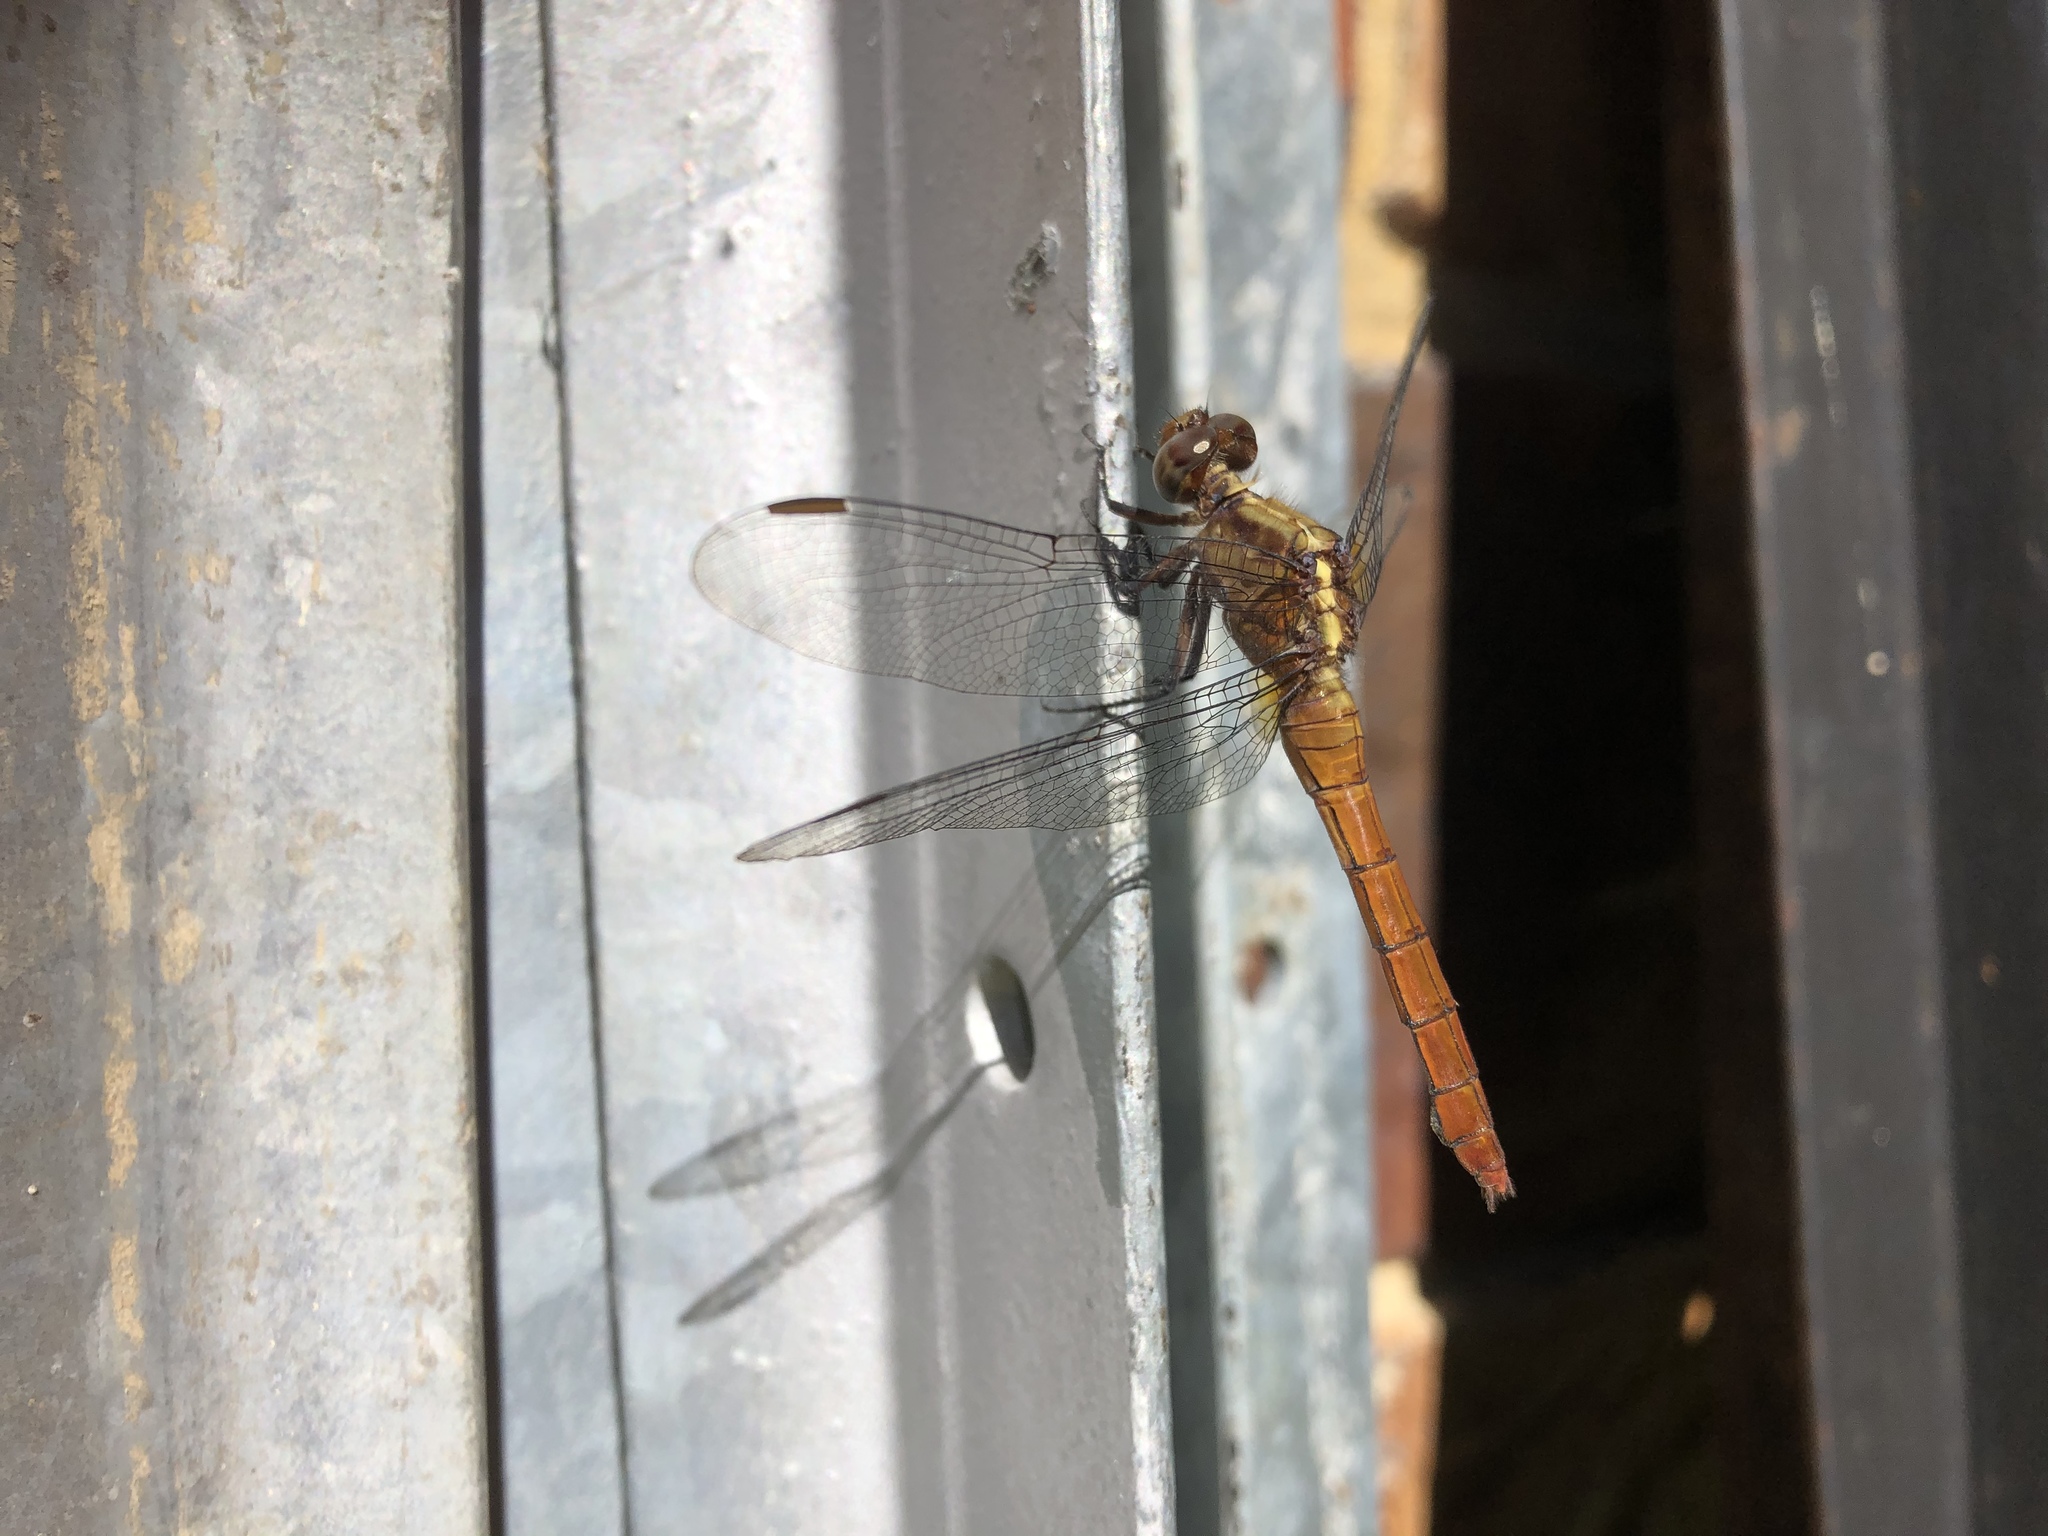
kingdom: Animalia
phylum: Arthropoda
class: Insecta
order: Odonata
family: Libellulidae
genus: Orthetrum
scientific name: Orthetrum villosovittatum
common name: Firery skimmer
